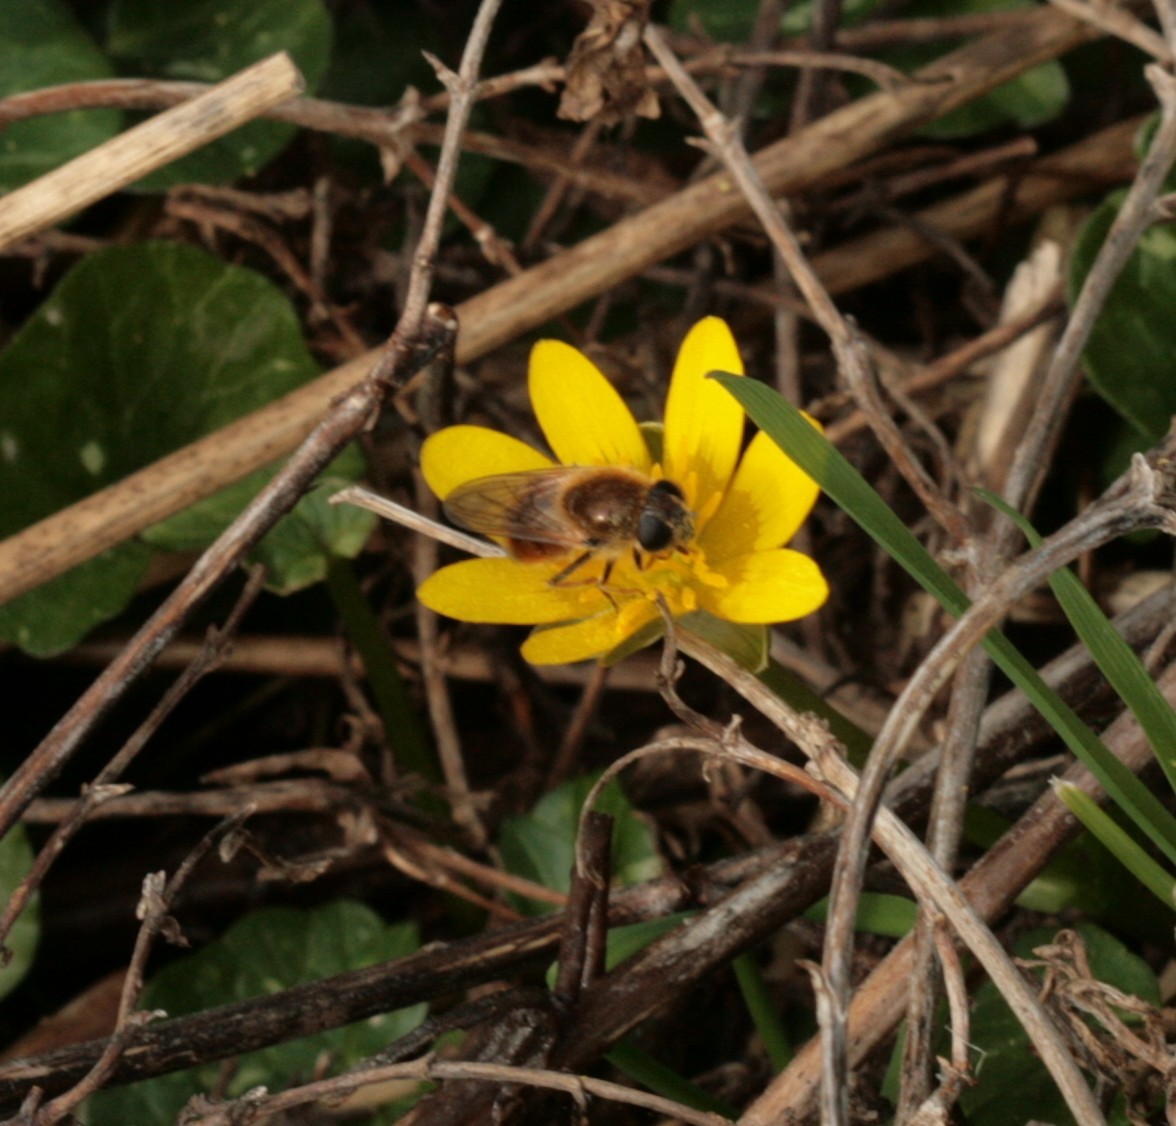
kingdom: Animalia
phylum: Arthropoda
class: Insecta
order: Diptera
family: Syrphidae
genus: Cheilosia
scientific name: Cheilosia corydon
